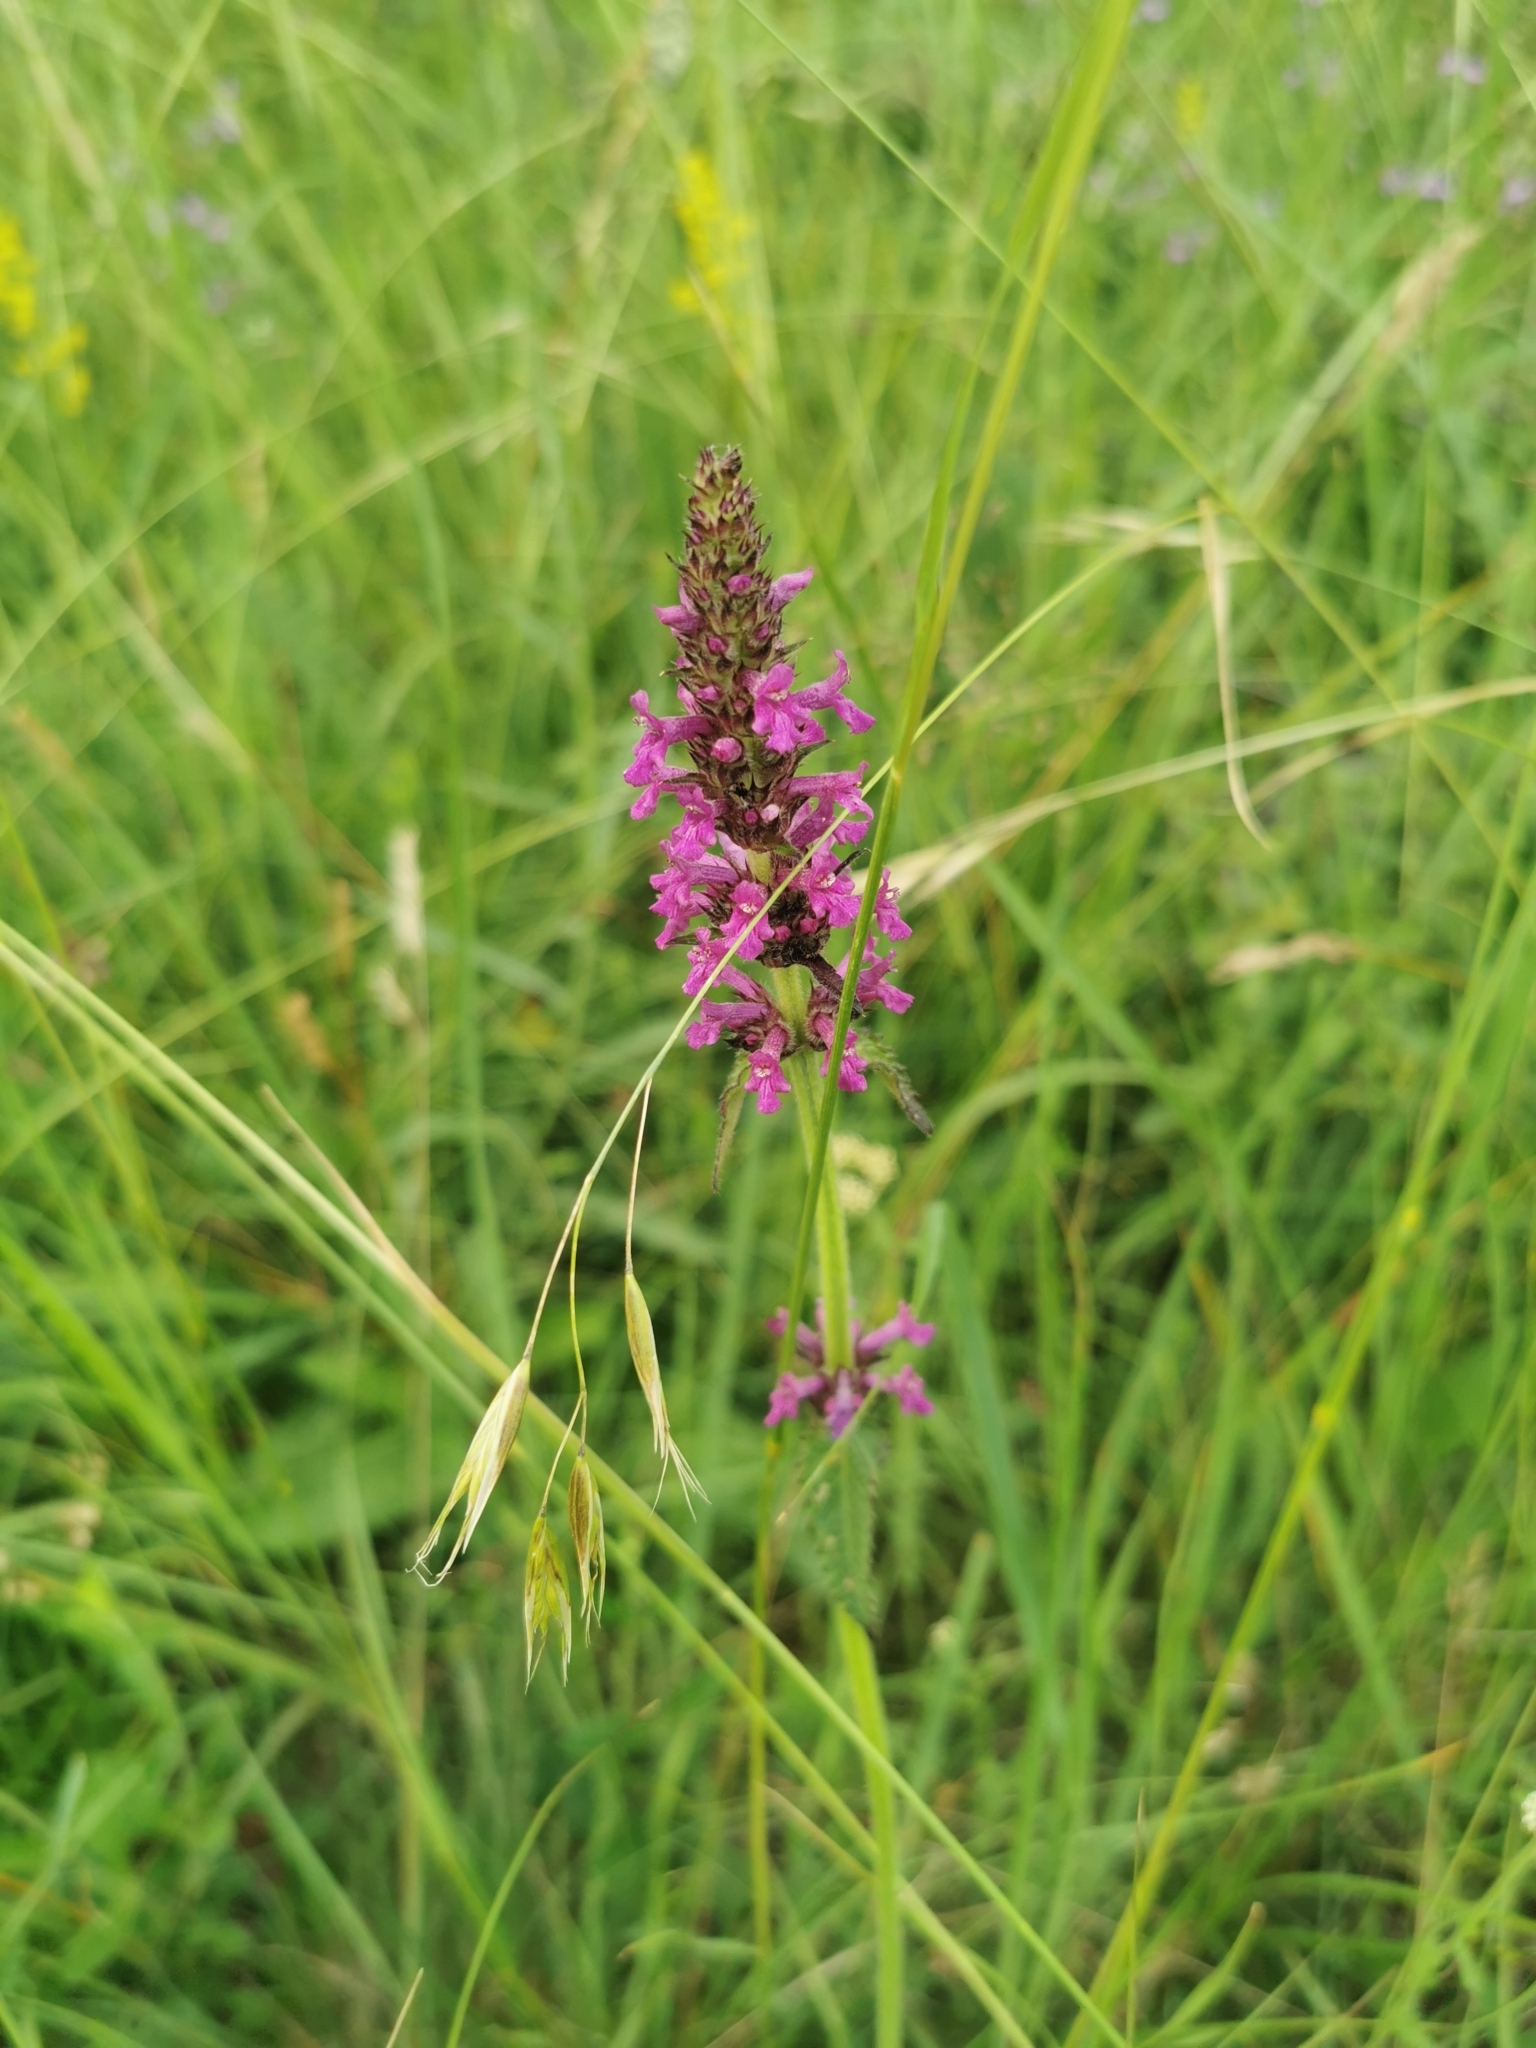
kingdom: Plantae
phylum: Tracheophyta
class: Magnoliopsida
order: Lamiales
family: Lamiaceae
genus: Betonica
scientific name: Betonica officinalis
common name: Bishop's-wort
